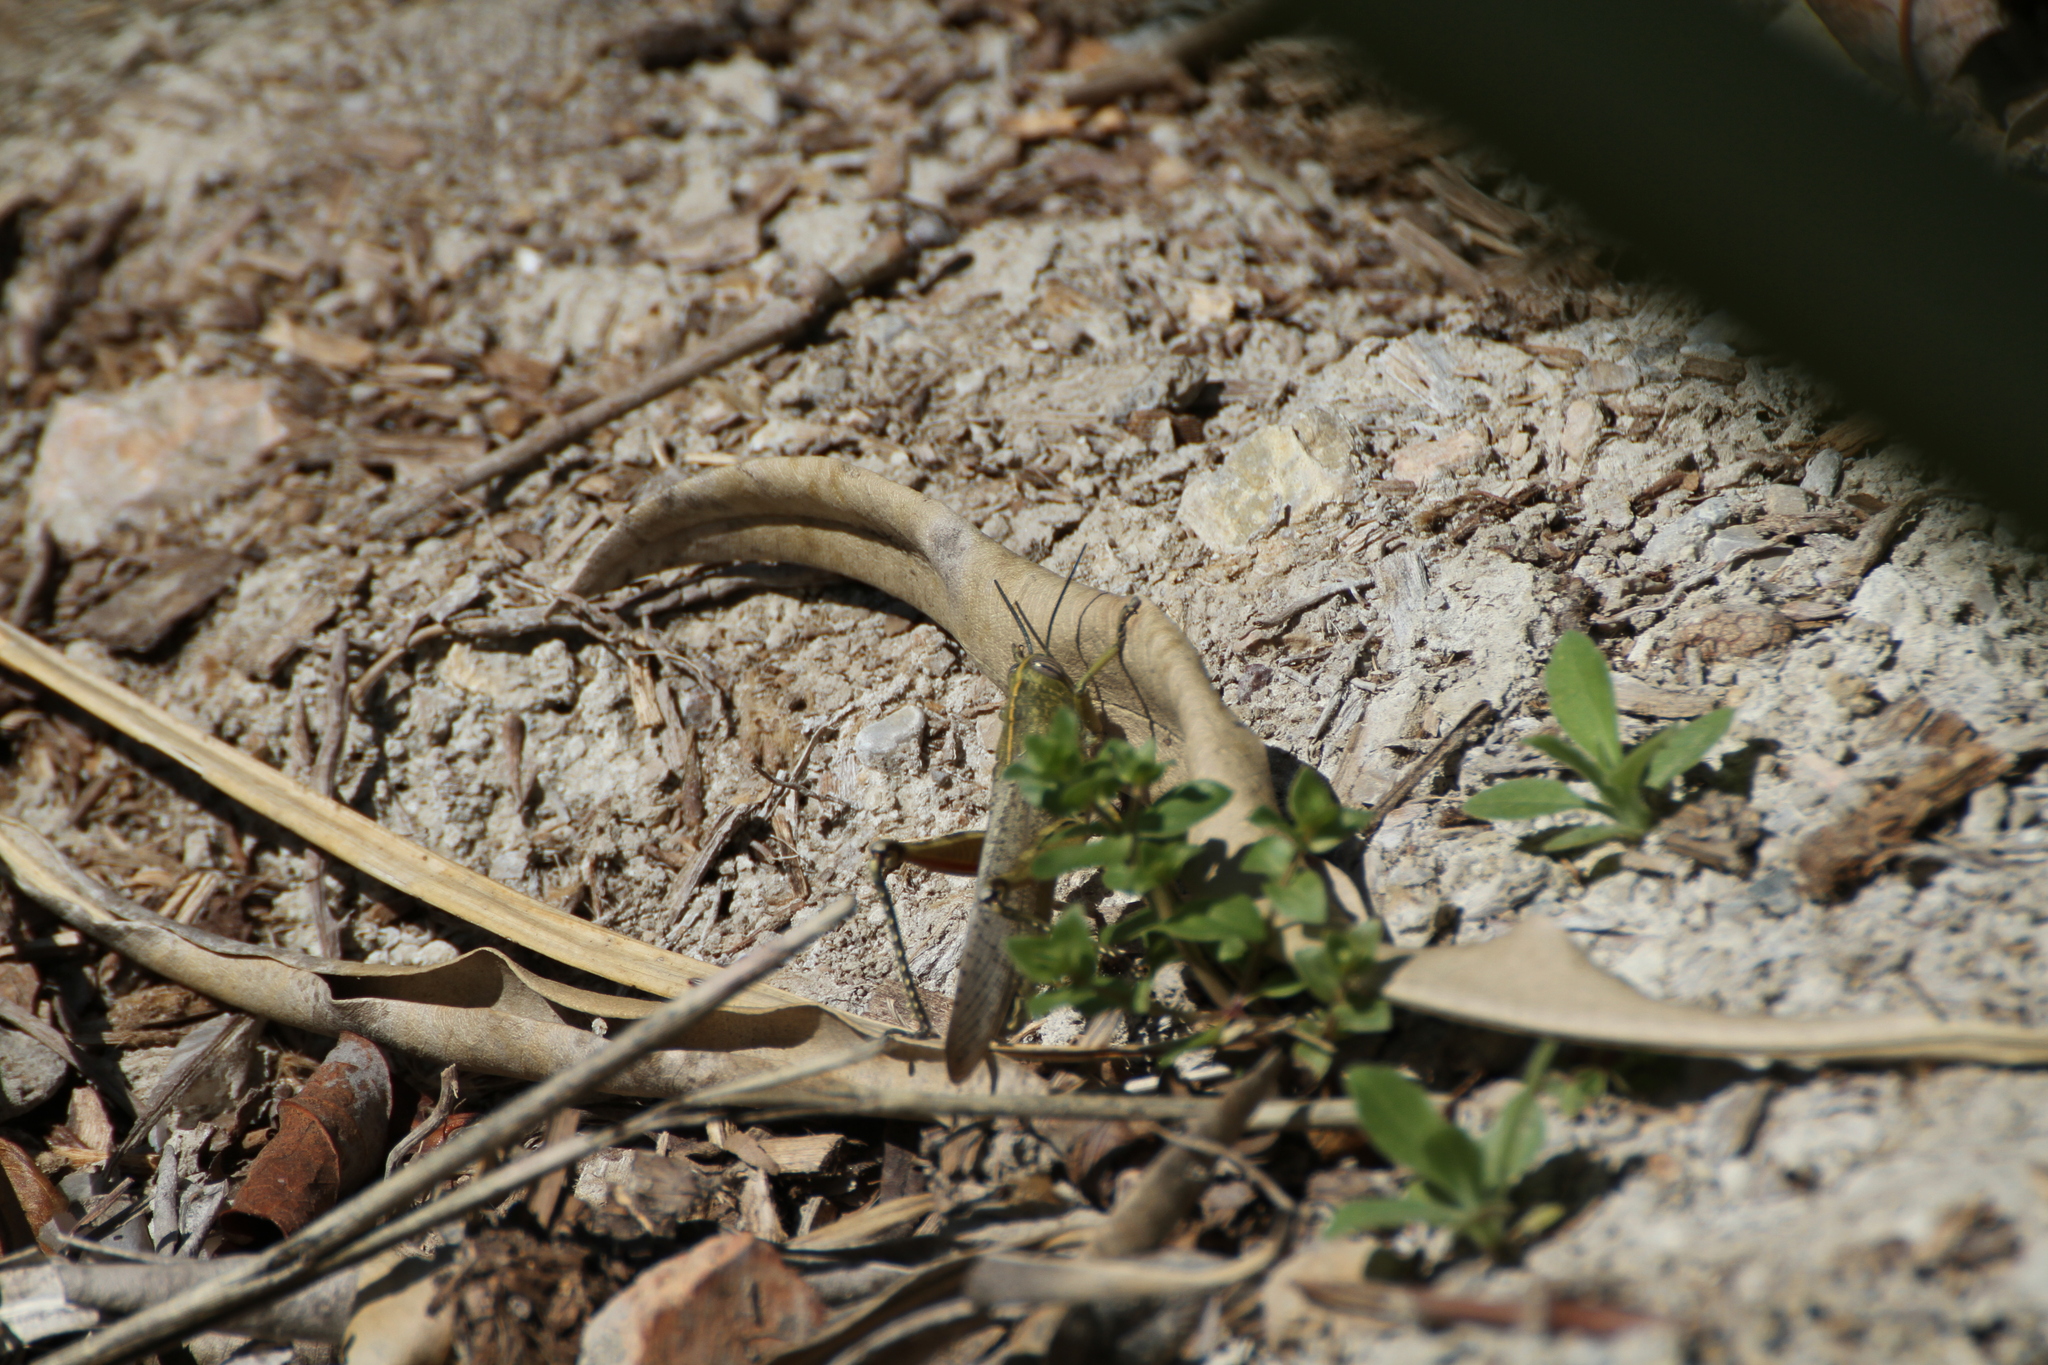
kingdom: Animalia
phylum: Arthropoda
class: Insecta
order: Orthoptera
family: Acrididae
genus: Anacridium
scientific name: Anacridium aegyptium
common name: Egyptian grasshopper
